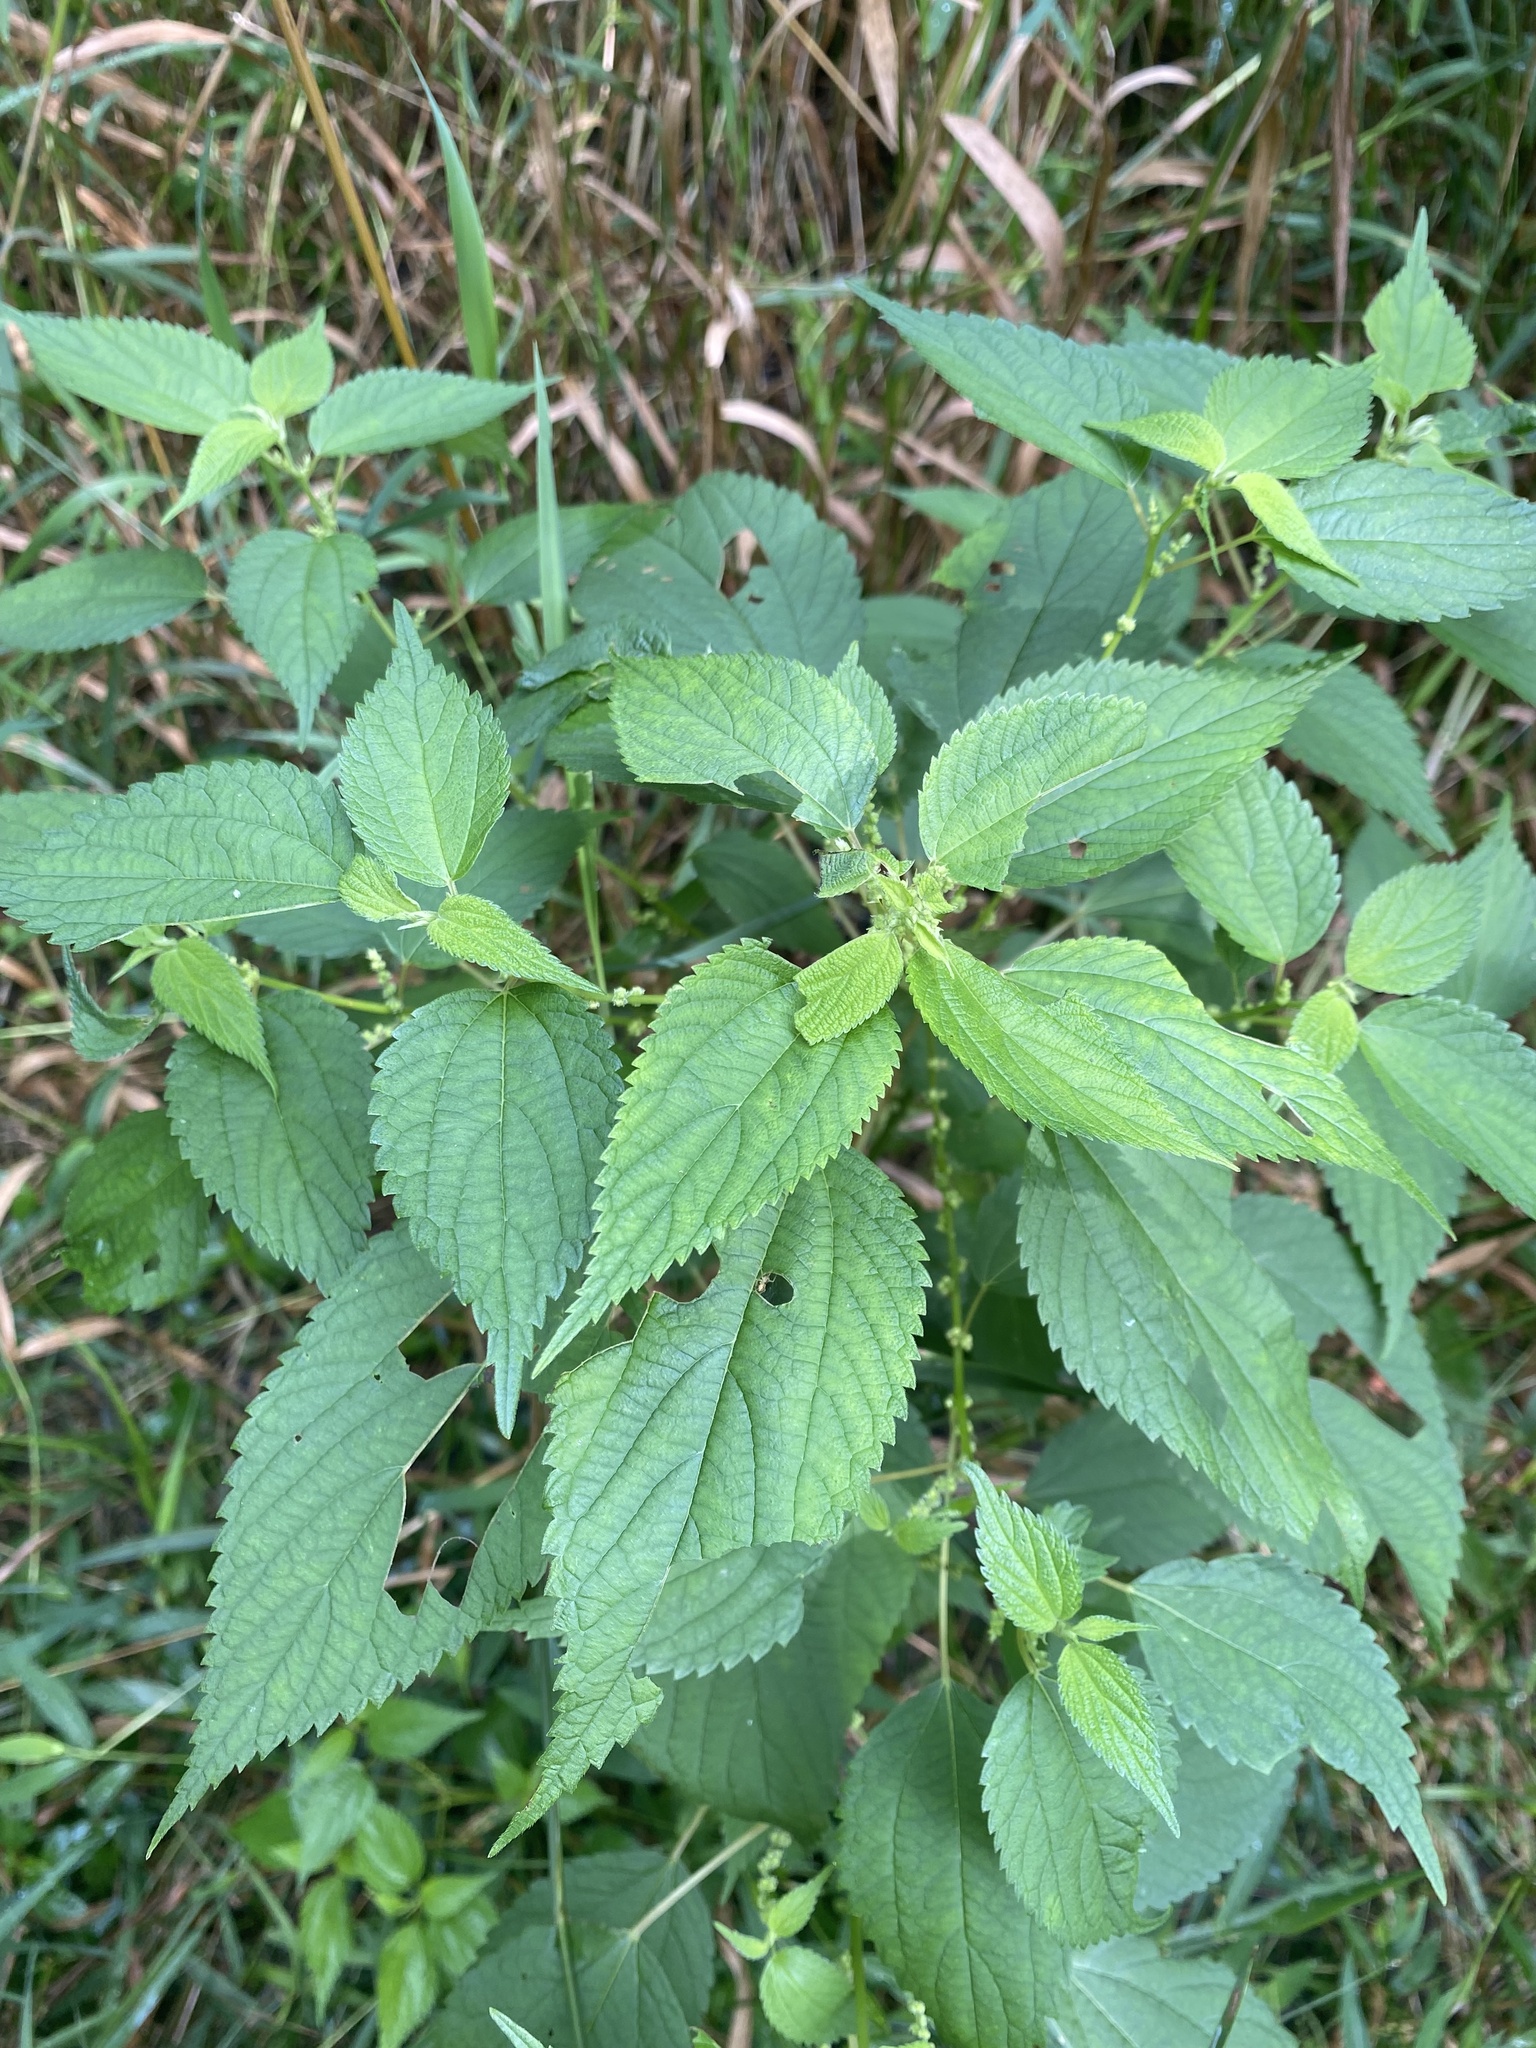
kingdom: Plantae
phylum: Tracheophyta
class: Magnoliopsida
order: Rosales
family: Urticaceae
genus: Boehmeria
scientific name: Boehmeria cylindrica
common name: Bog-hemp
